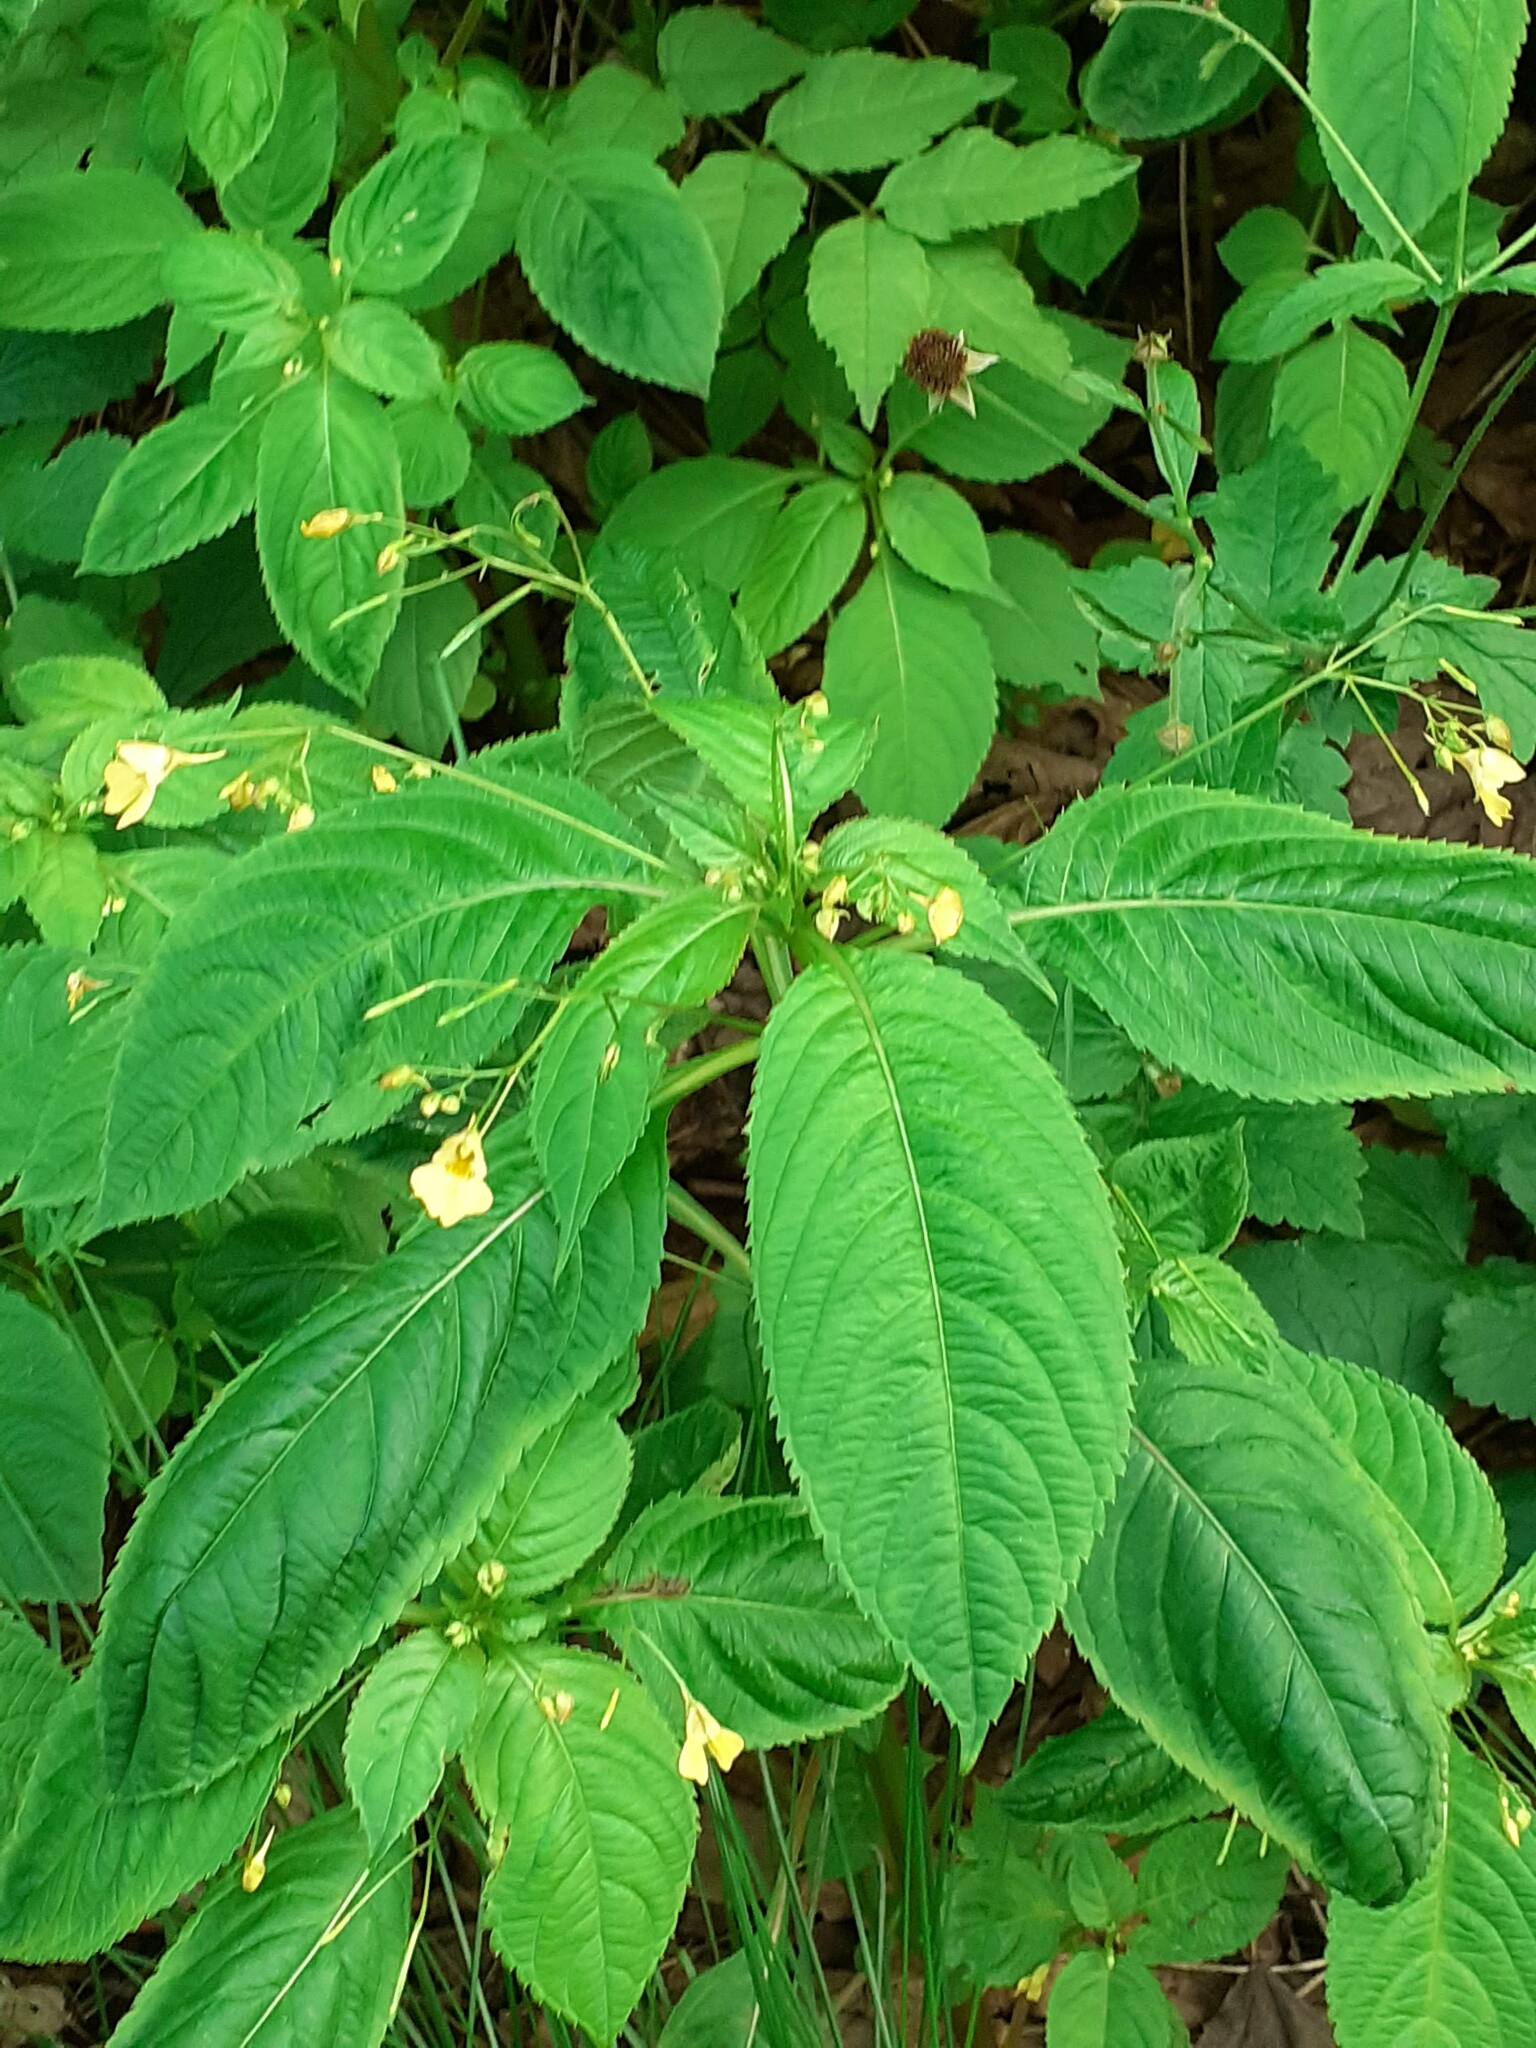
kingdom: Plantae
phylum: Tracheophyta
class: Magnoliopsida
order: Ericales
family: Balsaminaceae
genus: Impatiens
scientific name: Impatiens parviflora
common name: Small balsam
